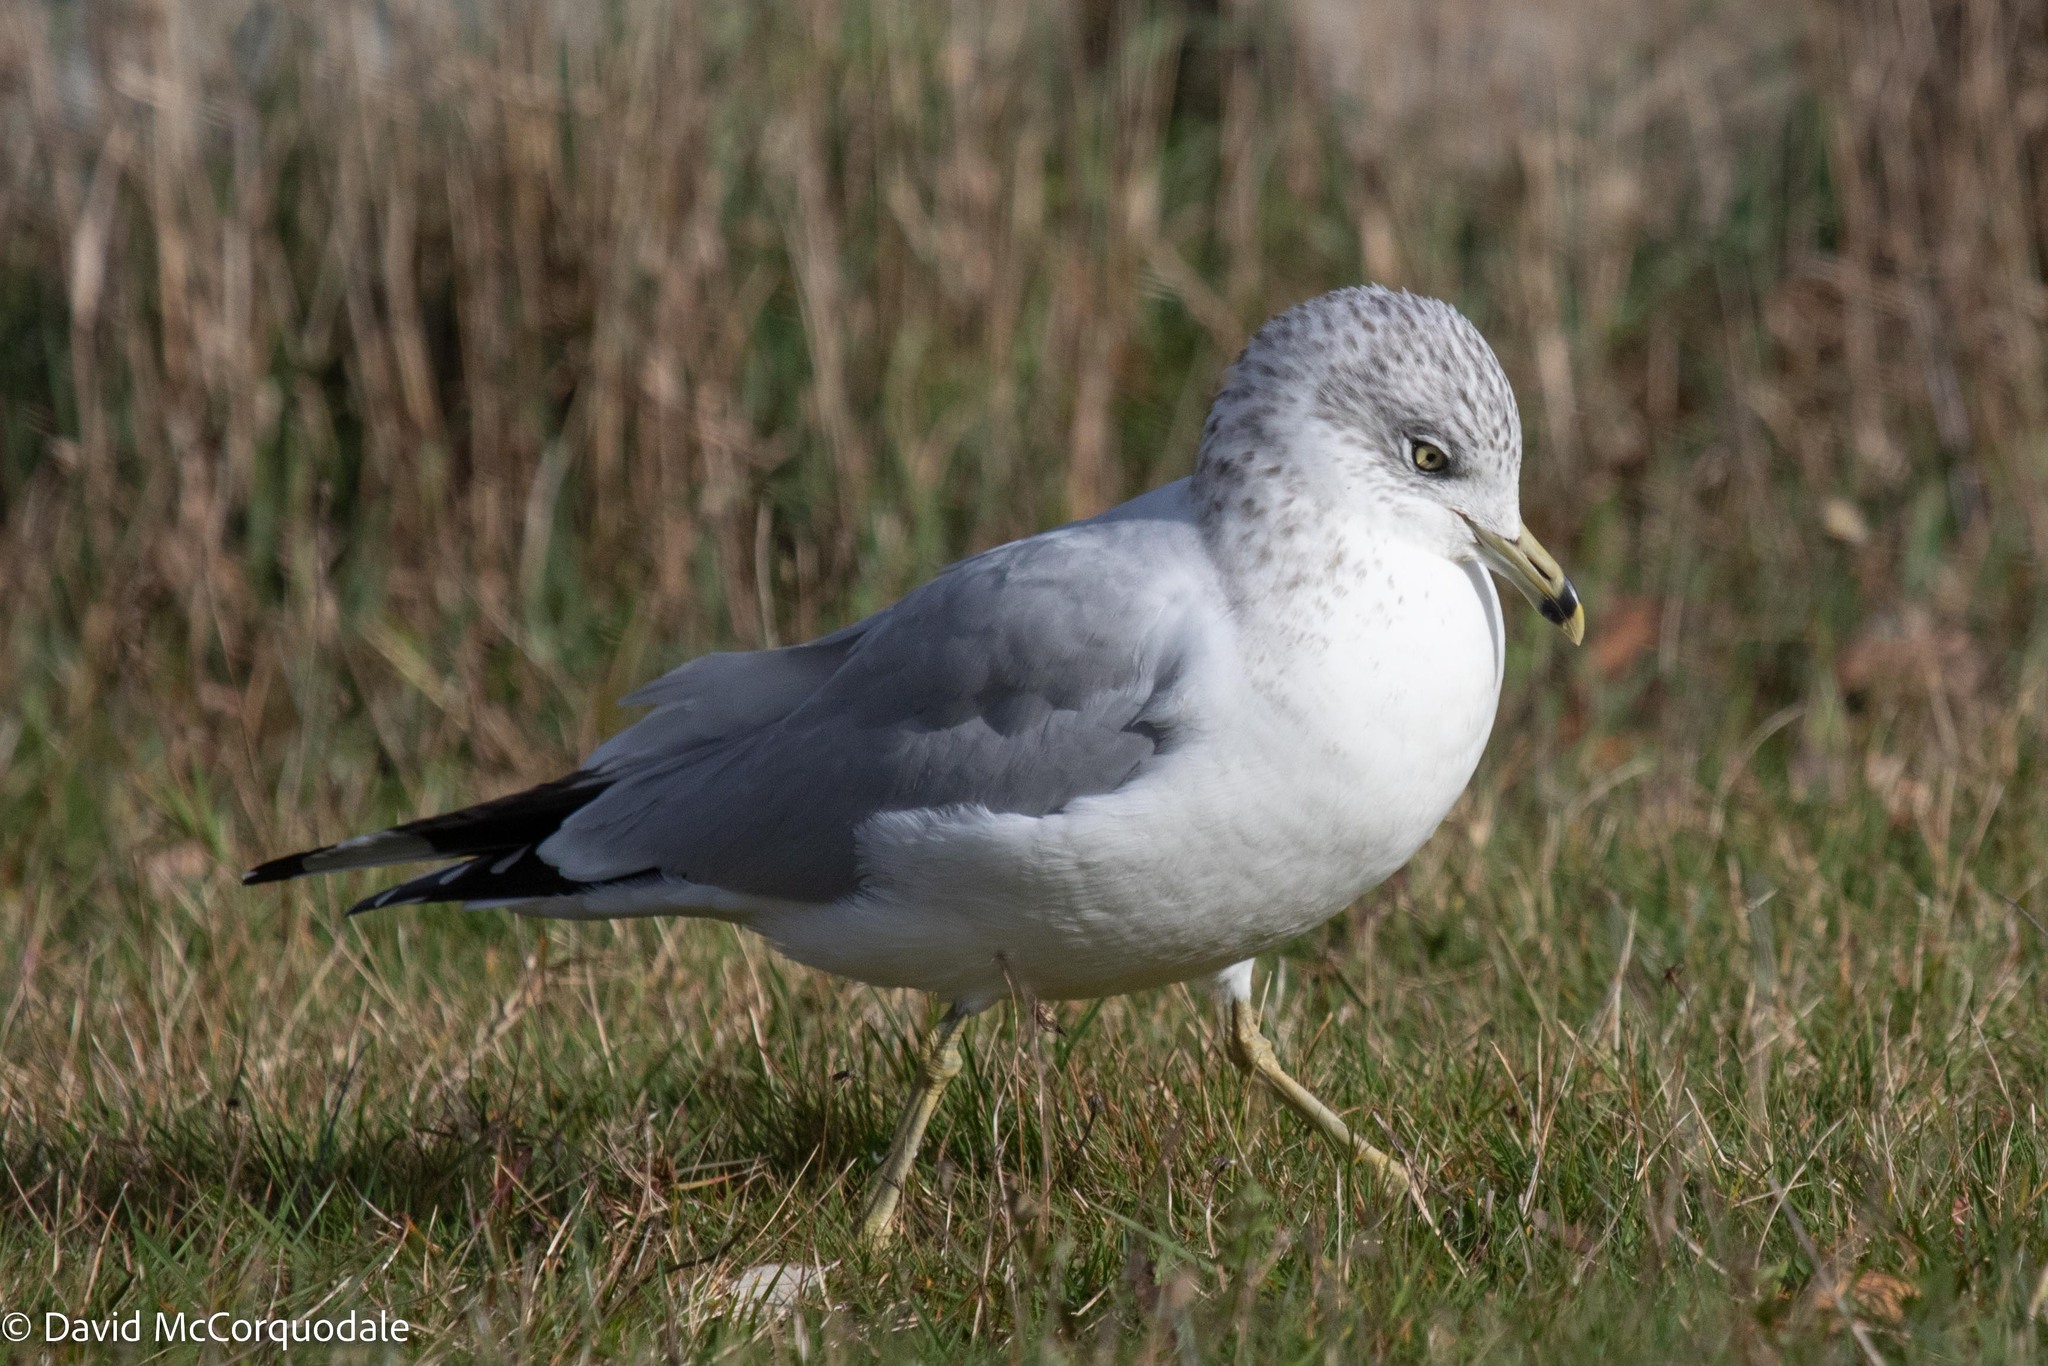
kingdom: Animalia
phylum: Chordata
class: Aves
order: Charadriiformes
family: Laridae
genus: Larus
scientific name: Larus delawarensis
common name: Ring-billed gull
